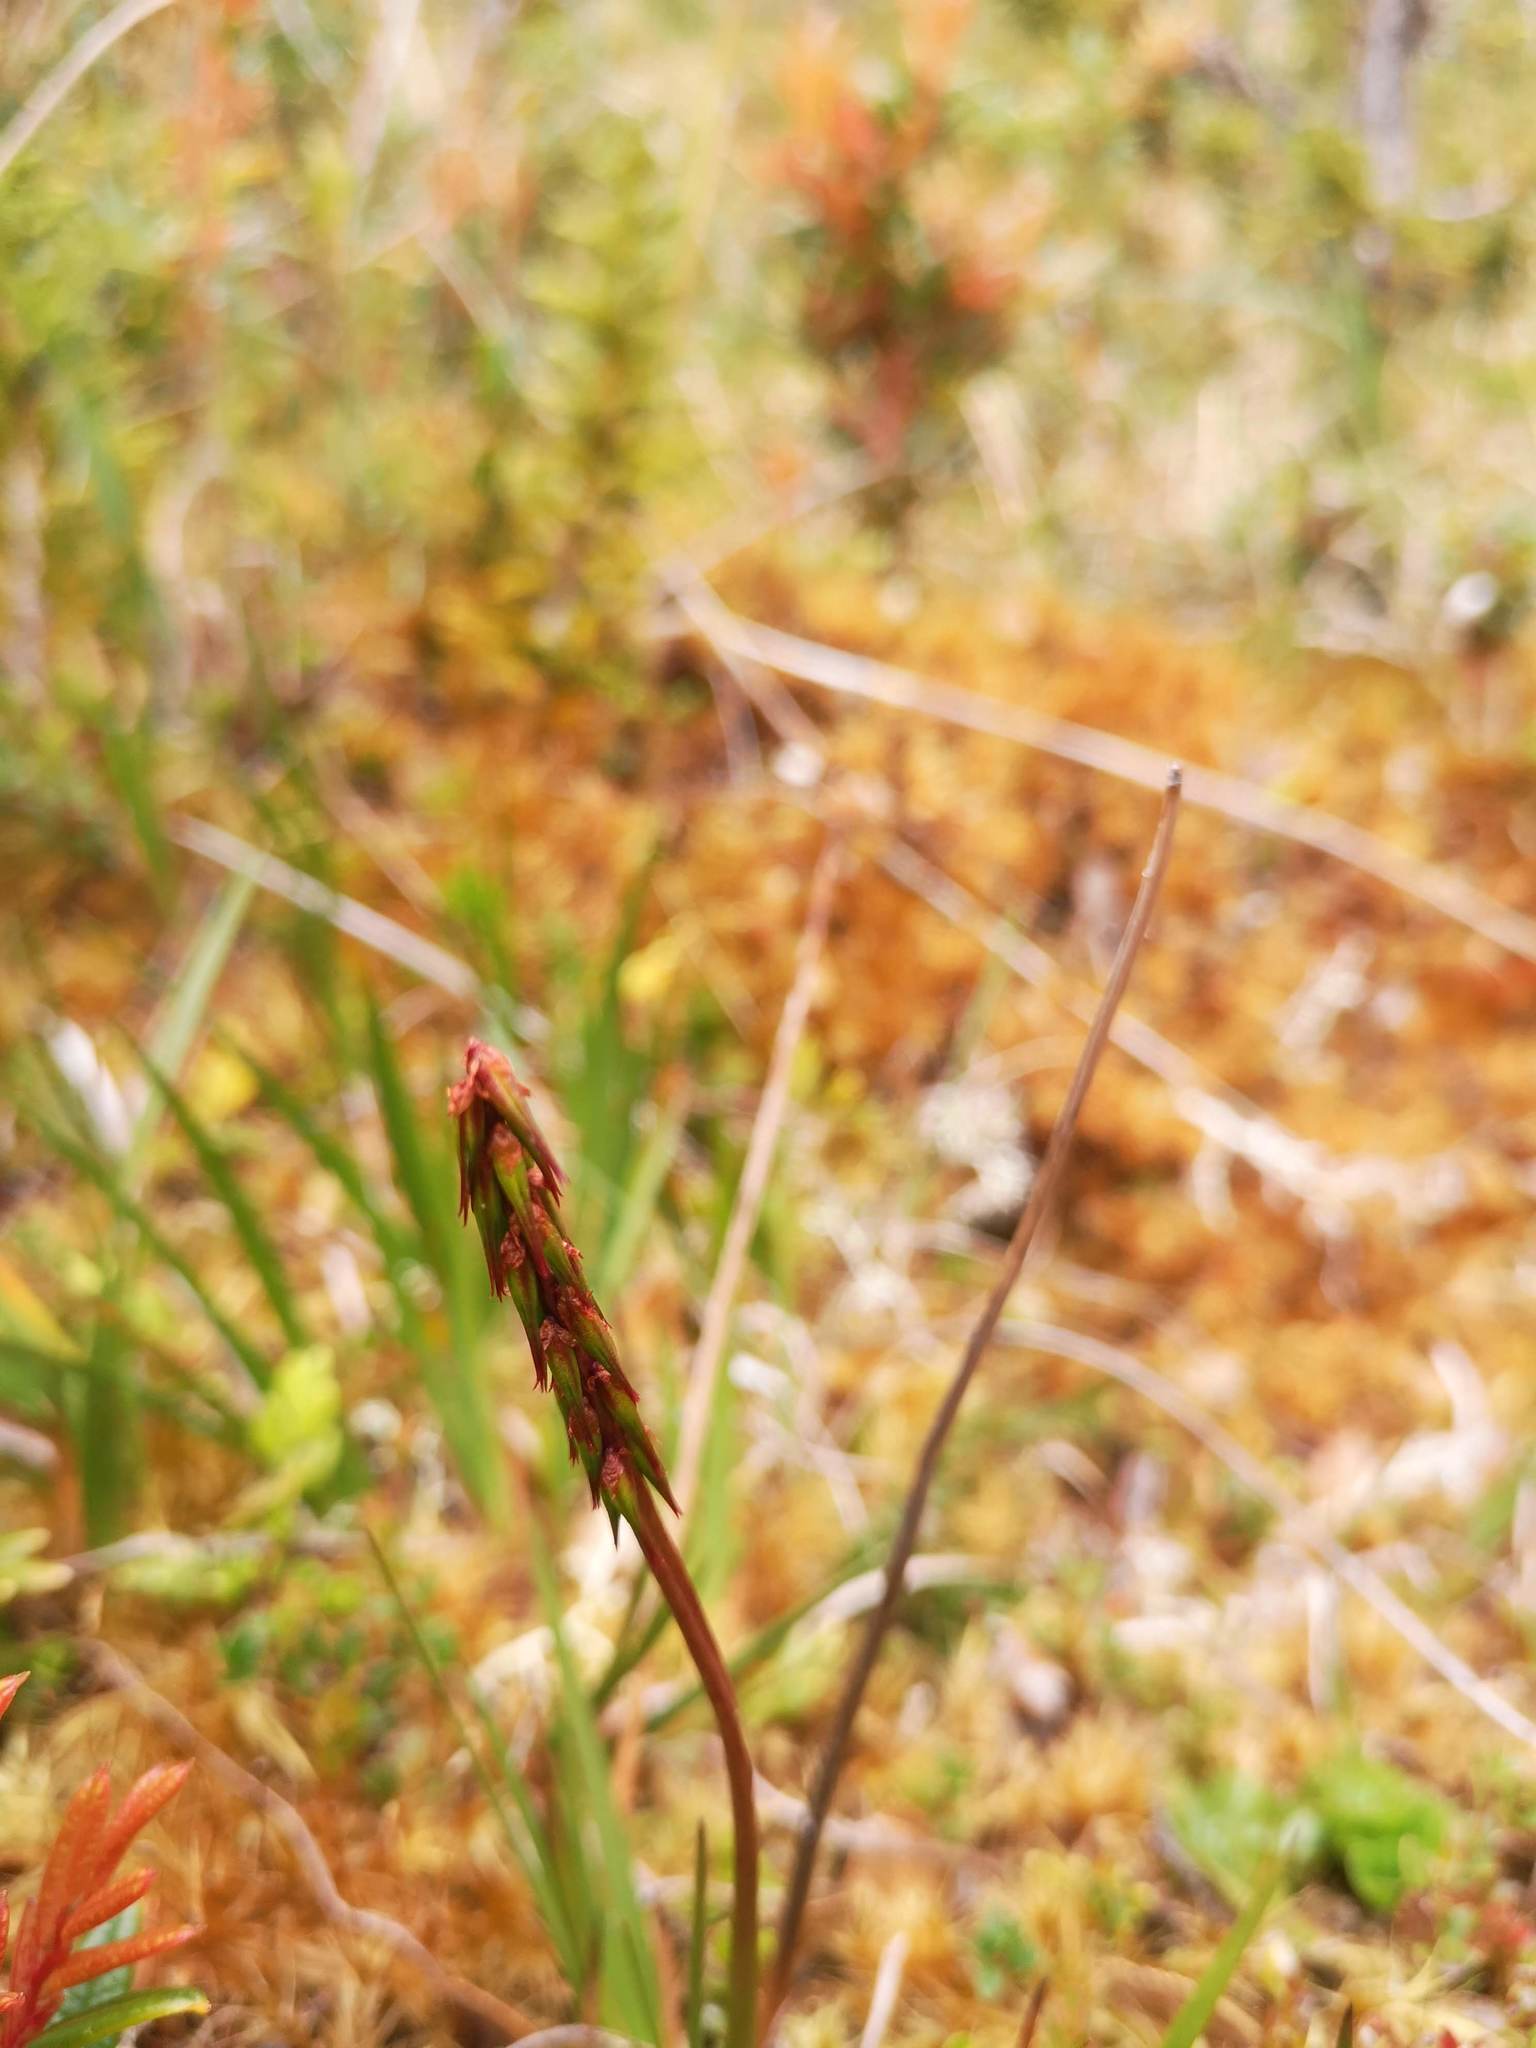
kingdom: Plantae
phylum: Tracheophyta
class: Liliopsida
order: Alismatales
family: Juncaginaceae
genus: Tetroncium
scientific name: Tetroncium magellanicum
